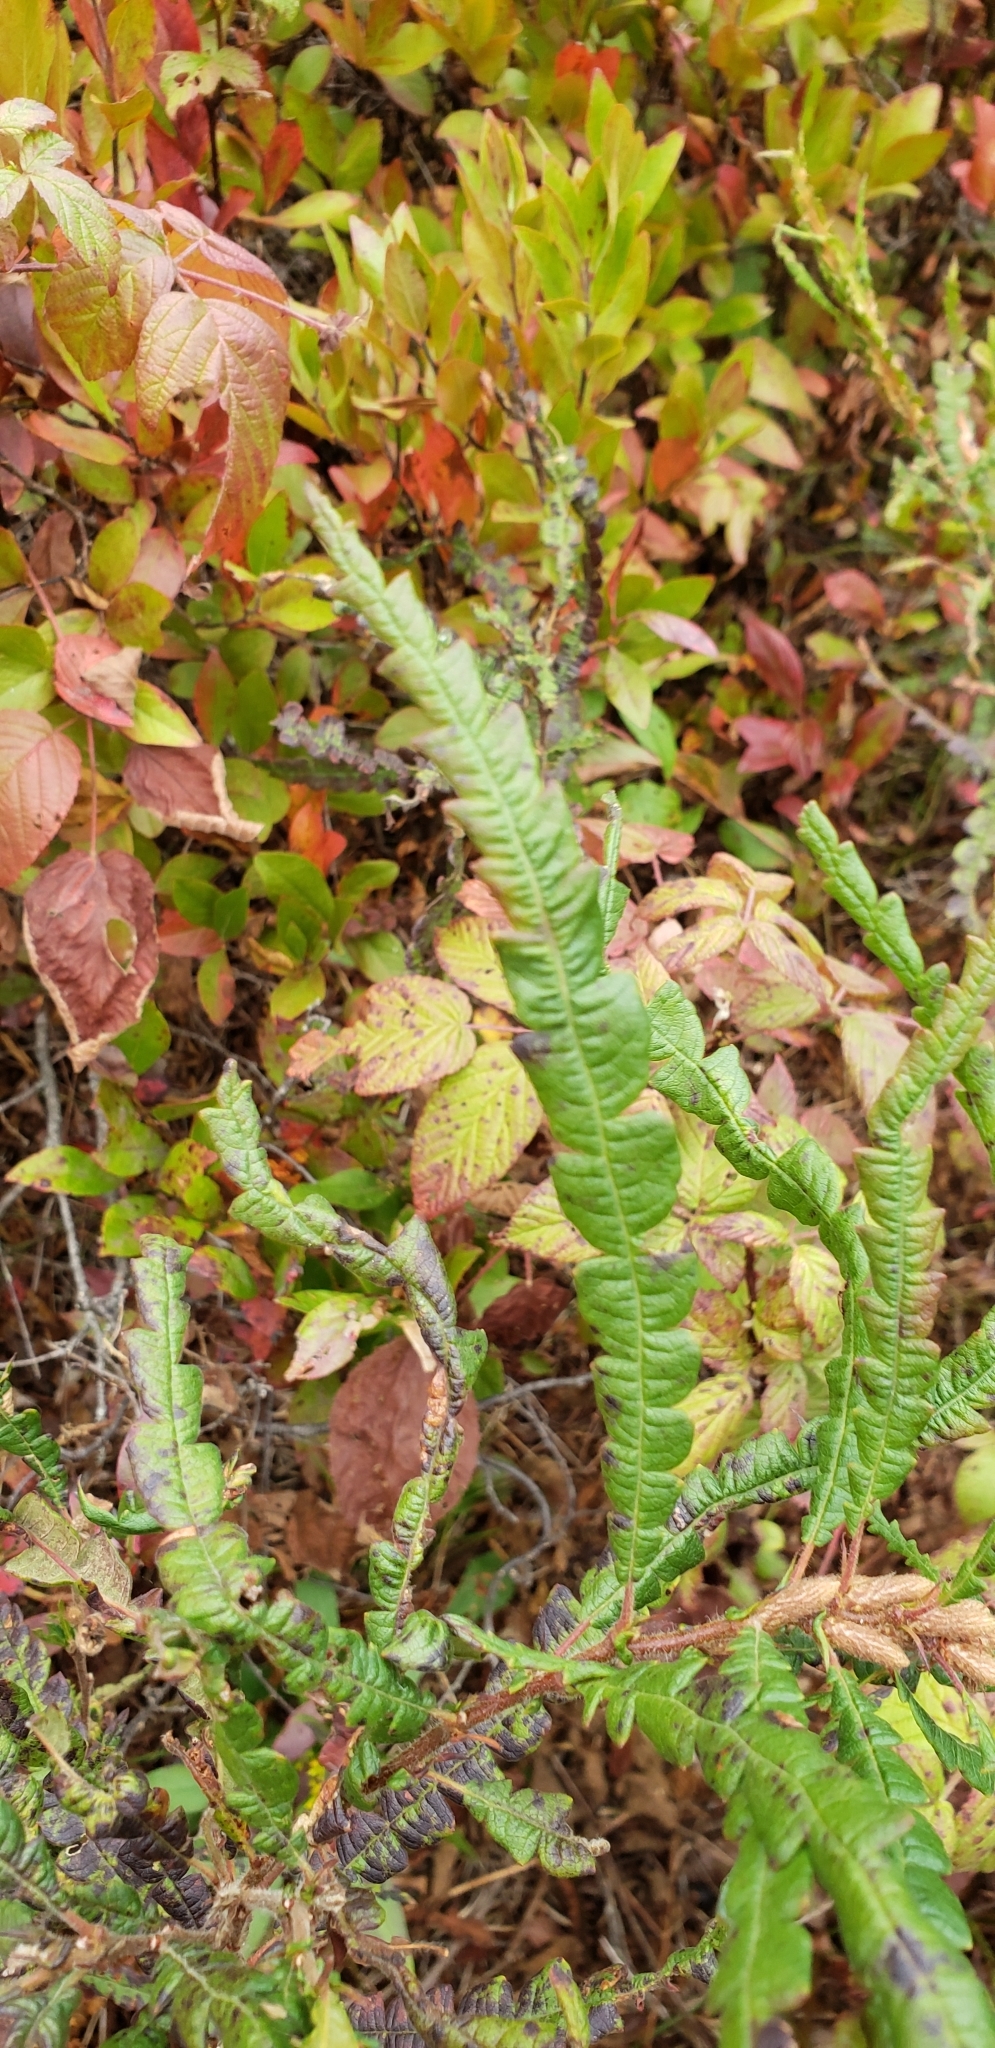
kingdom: Plantae
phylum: Tracheophyta
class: Magnoliopsida
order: Fagales
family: Myricaceae
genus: Comptonia
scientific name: Comptonia peregrina
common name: Sweet-fern
